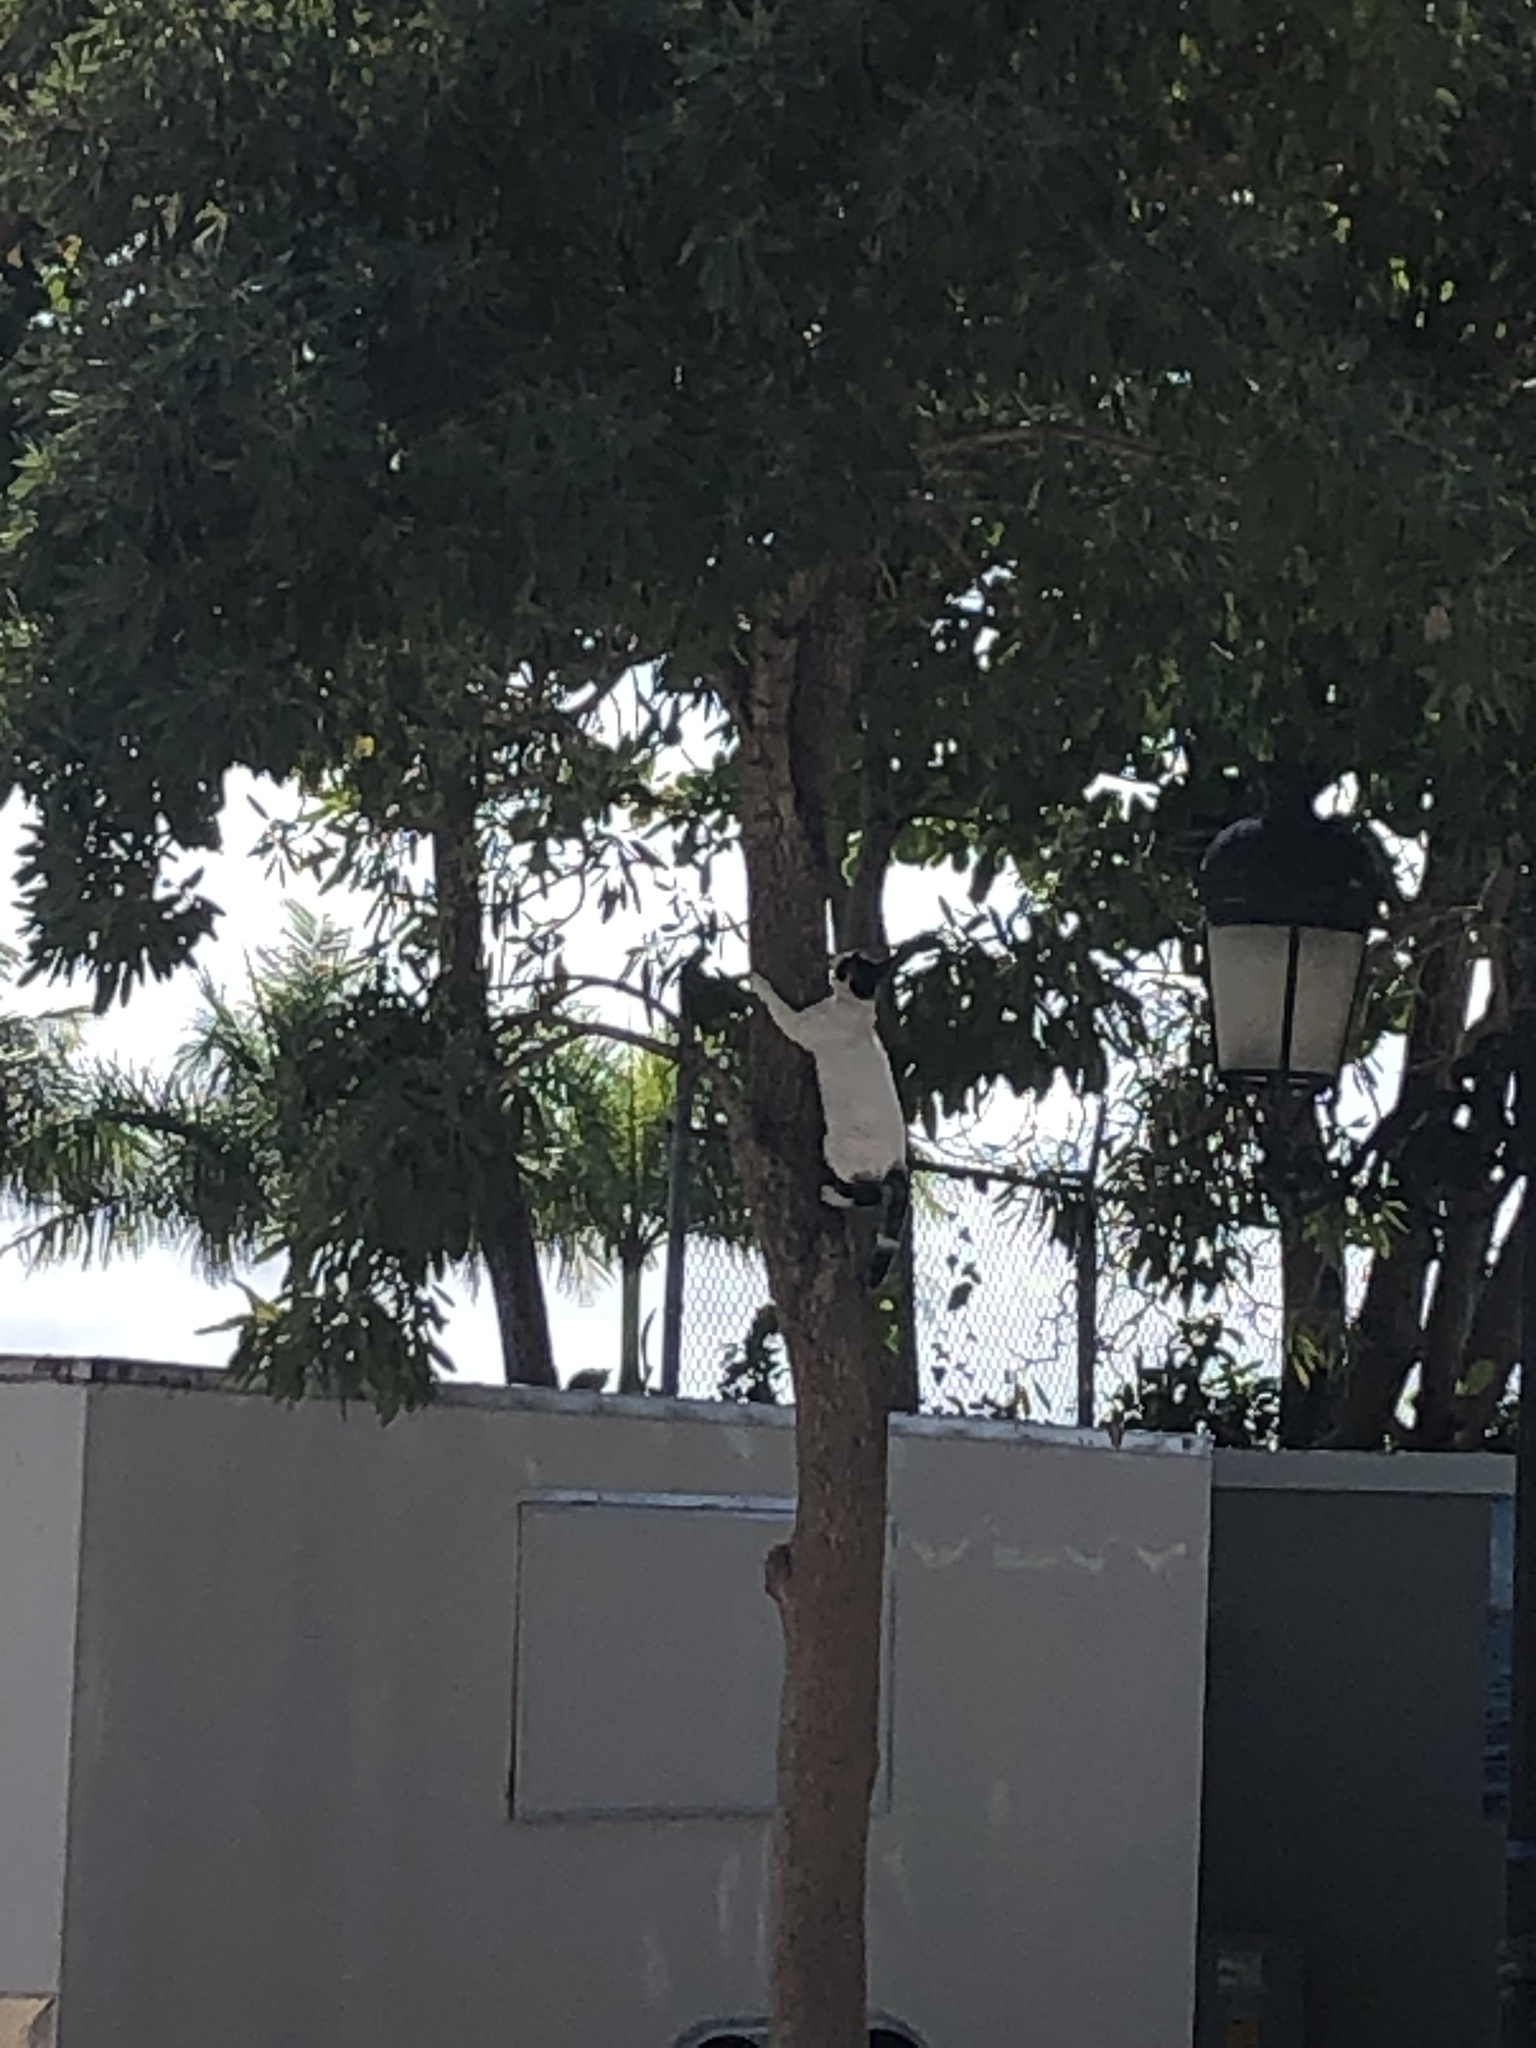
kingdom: Animalia
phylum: Chordata
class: Mammalia
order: Carnivora
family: Felidae
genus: Felis
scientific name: Felis catus
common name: Domestic cat
